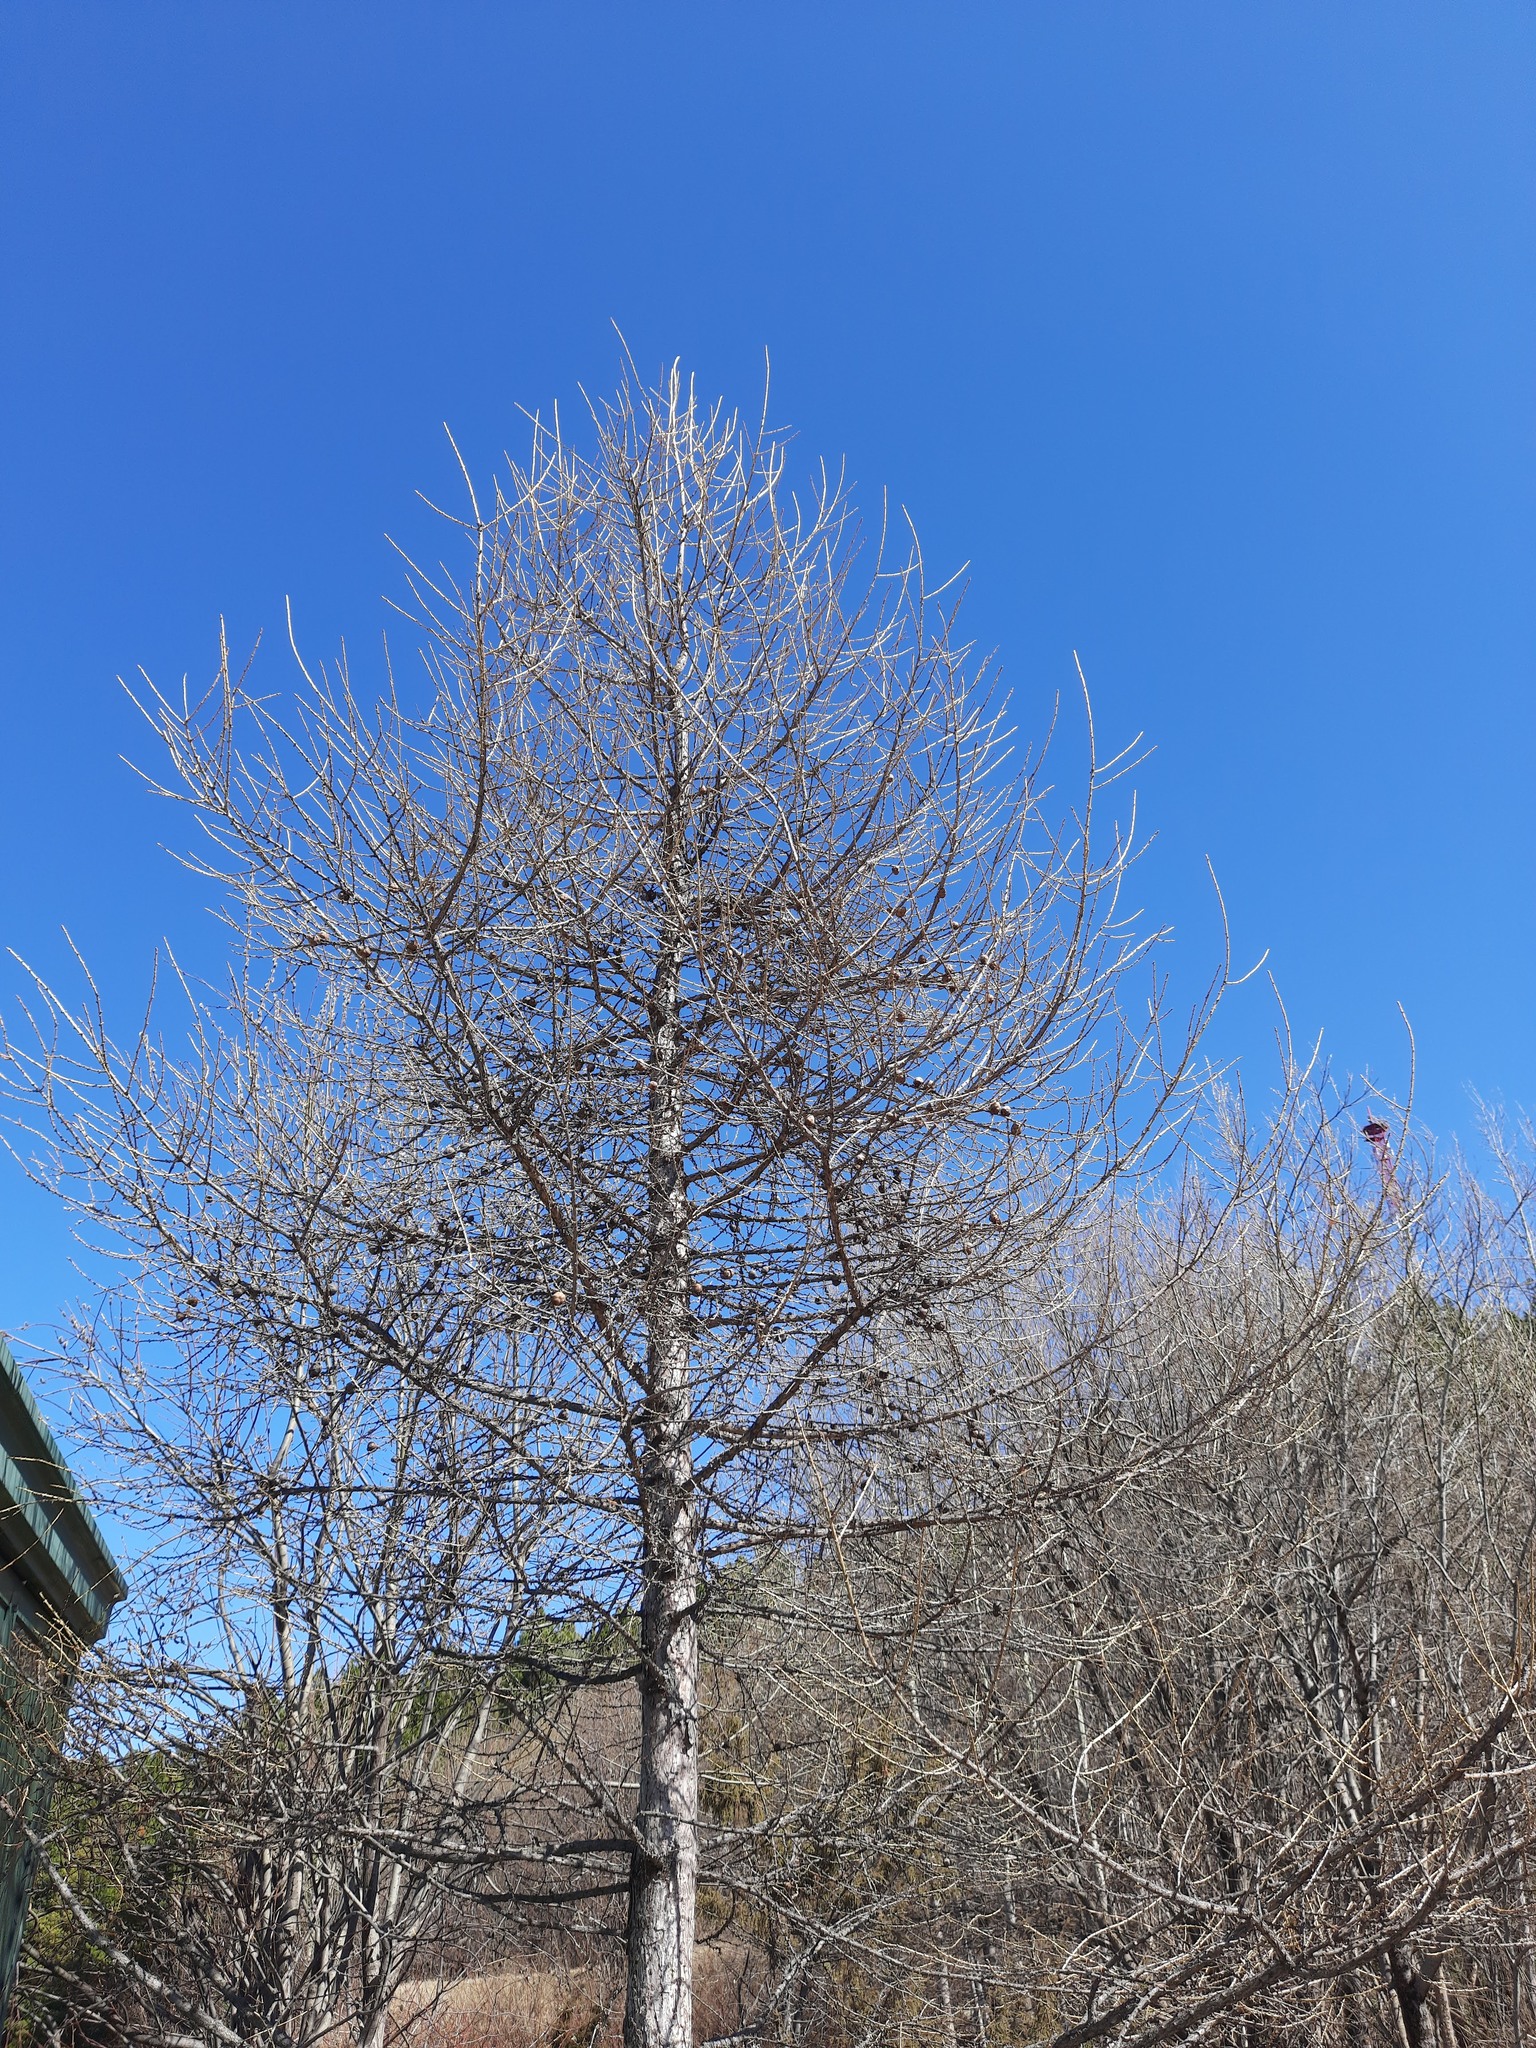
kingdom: Plantae
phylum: Tracheophyta
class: Pinopsida
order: Pinales
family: Pinaceae
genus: Larix
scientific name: Larix sibirica
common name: Siberian larch
